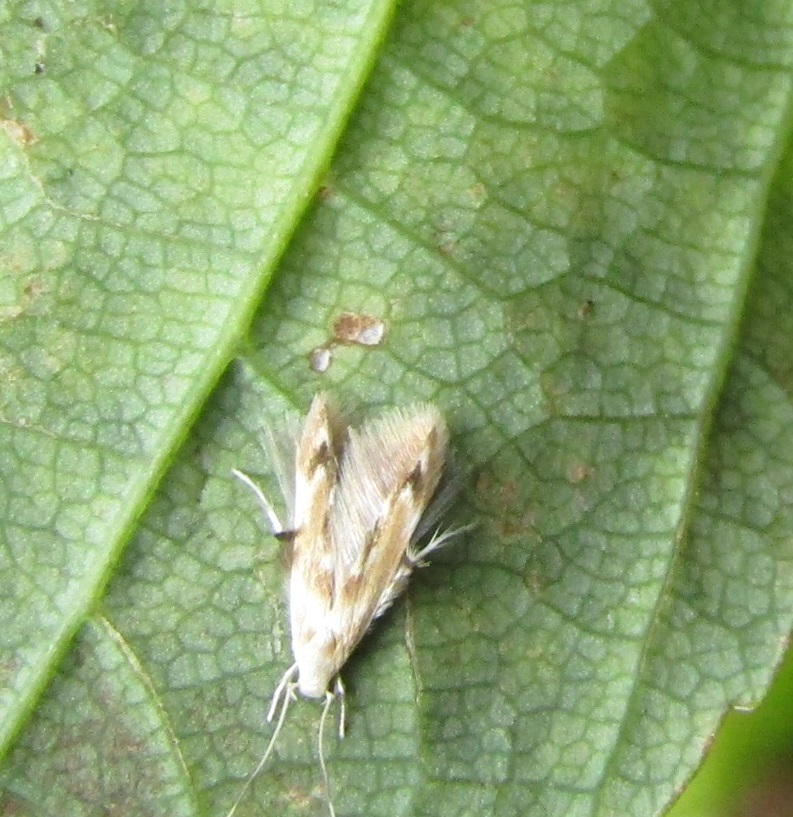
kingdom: Animalia
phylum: Arthropoda
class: Insecta
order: Lepidoptera
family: Stathmopodidae
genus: Thylacosceles
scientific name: Thylacosceles radians
